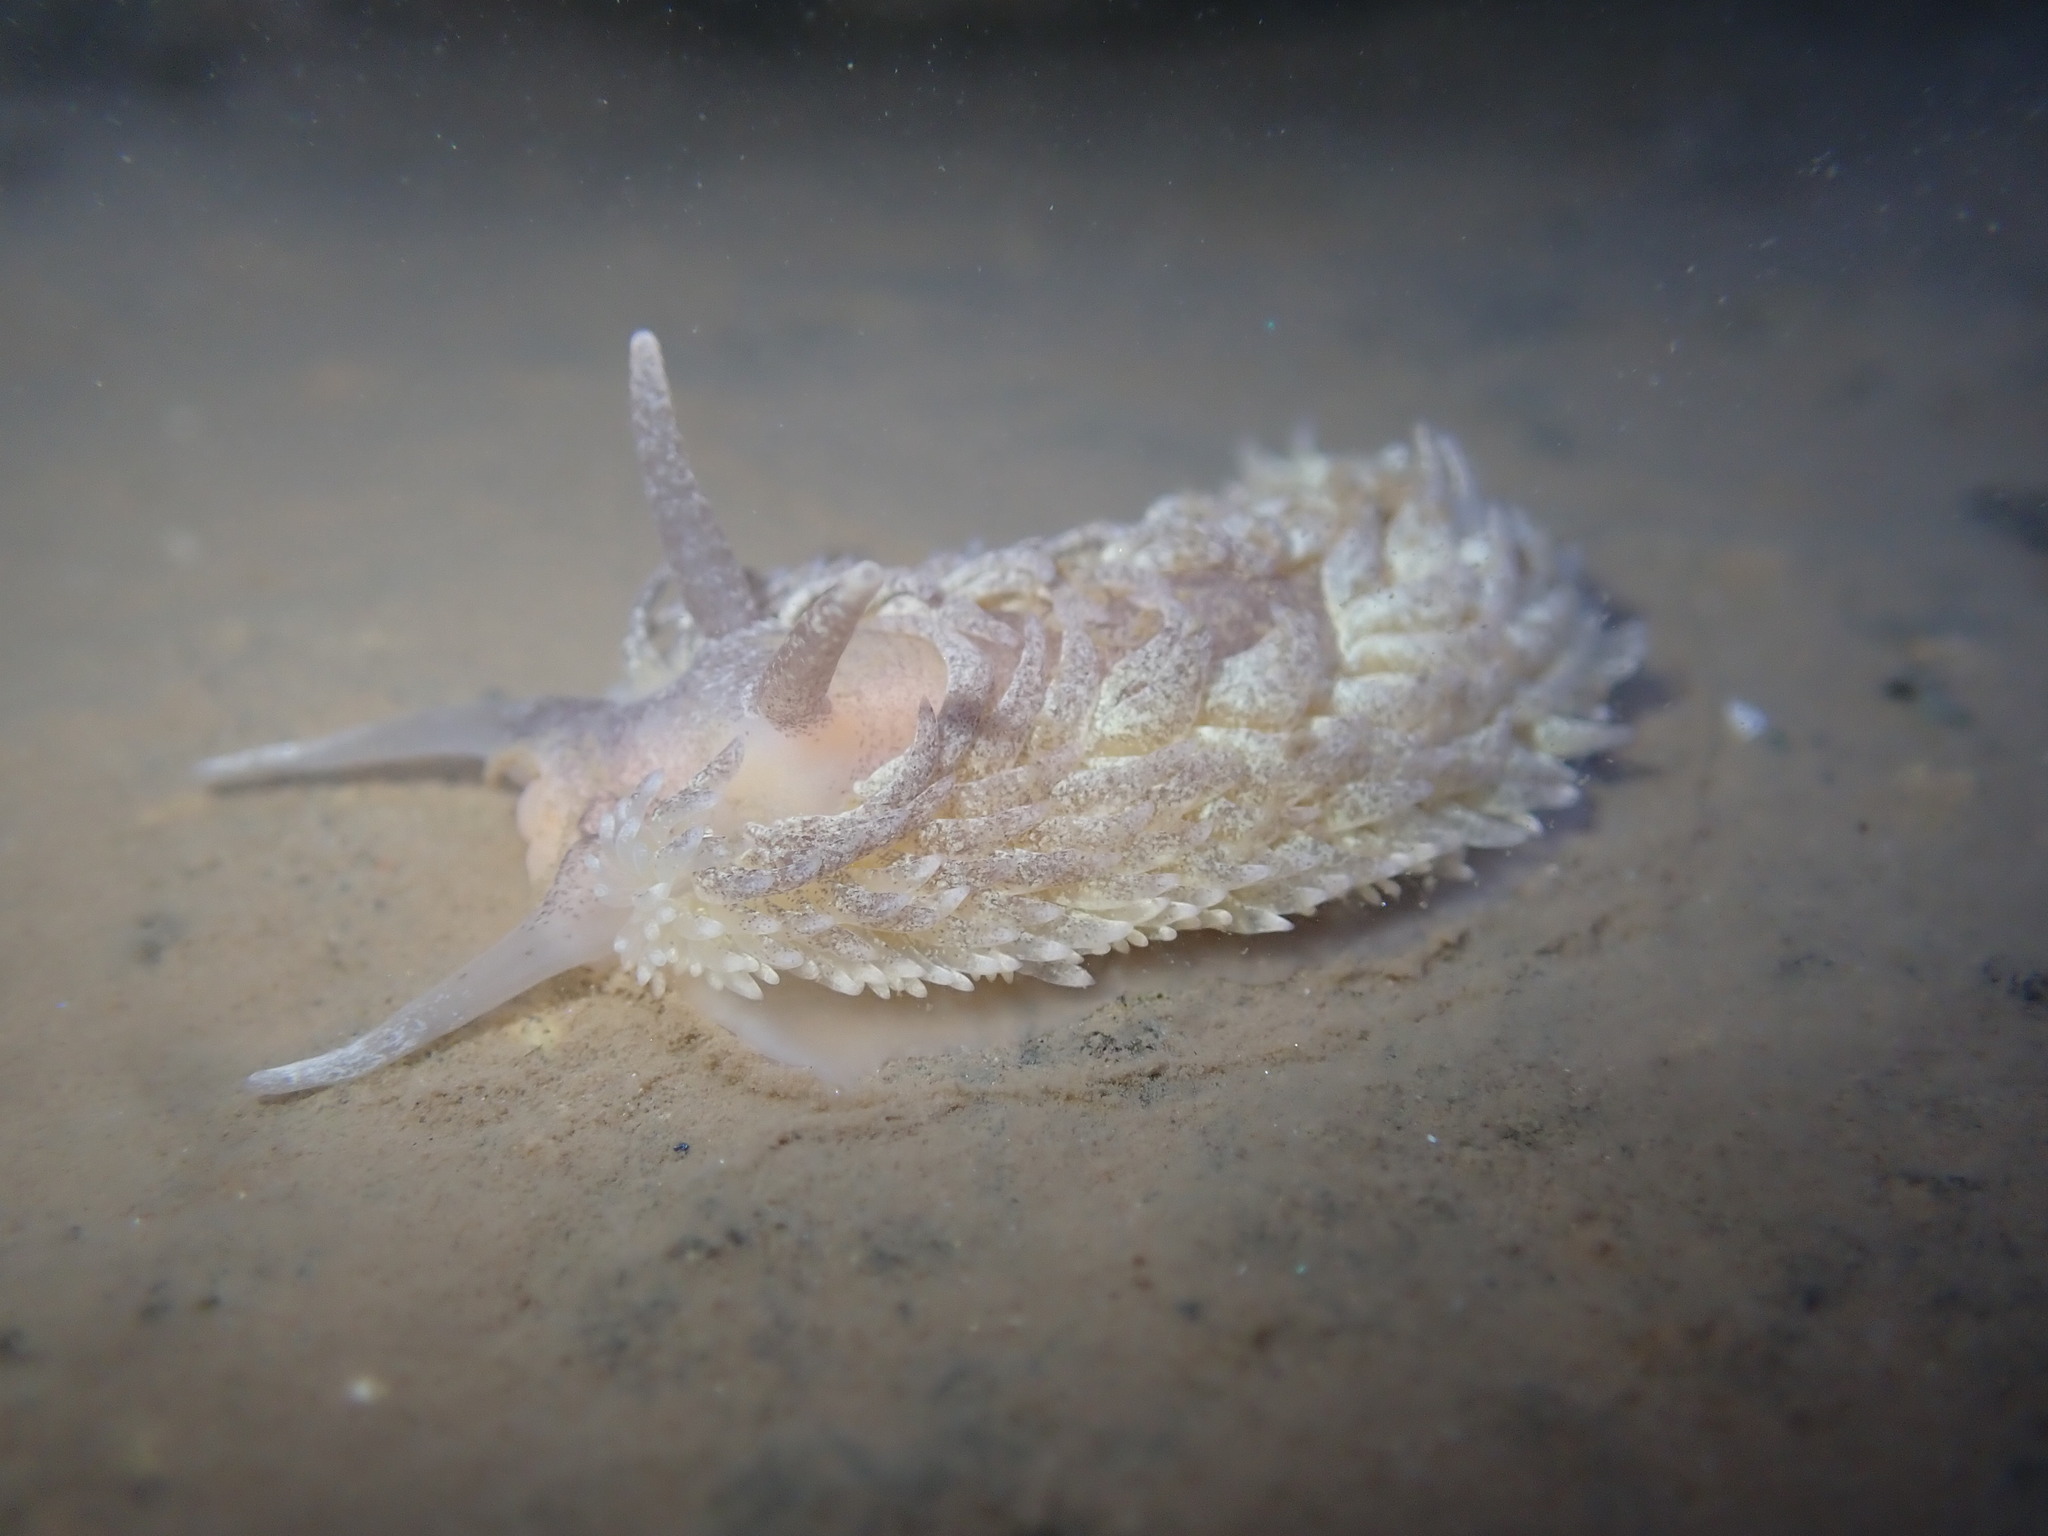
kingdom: Animalia
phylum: Mollusca
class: Gastropoda
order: Nudibranchia
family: Aeolidiidae
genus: Aeolidia
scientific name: Aeolidia papillosa
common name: Common grey sea slug
